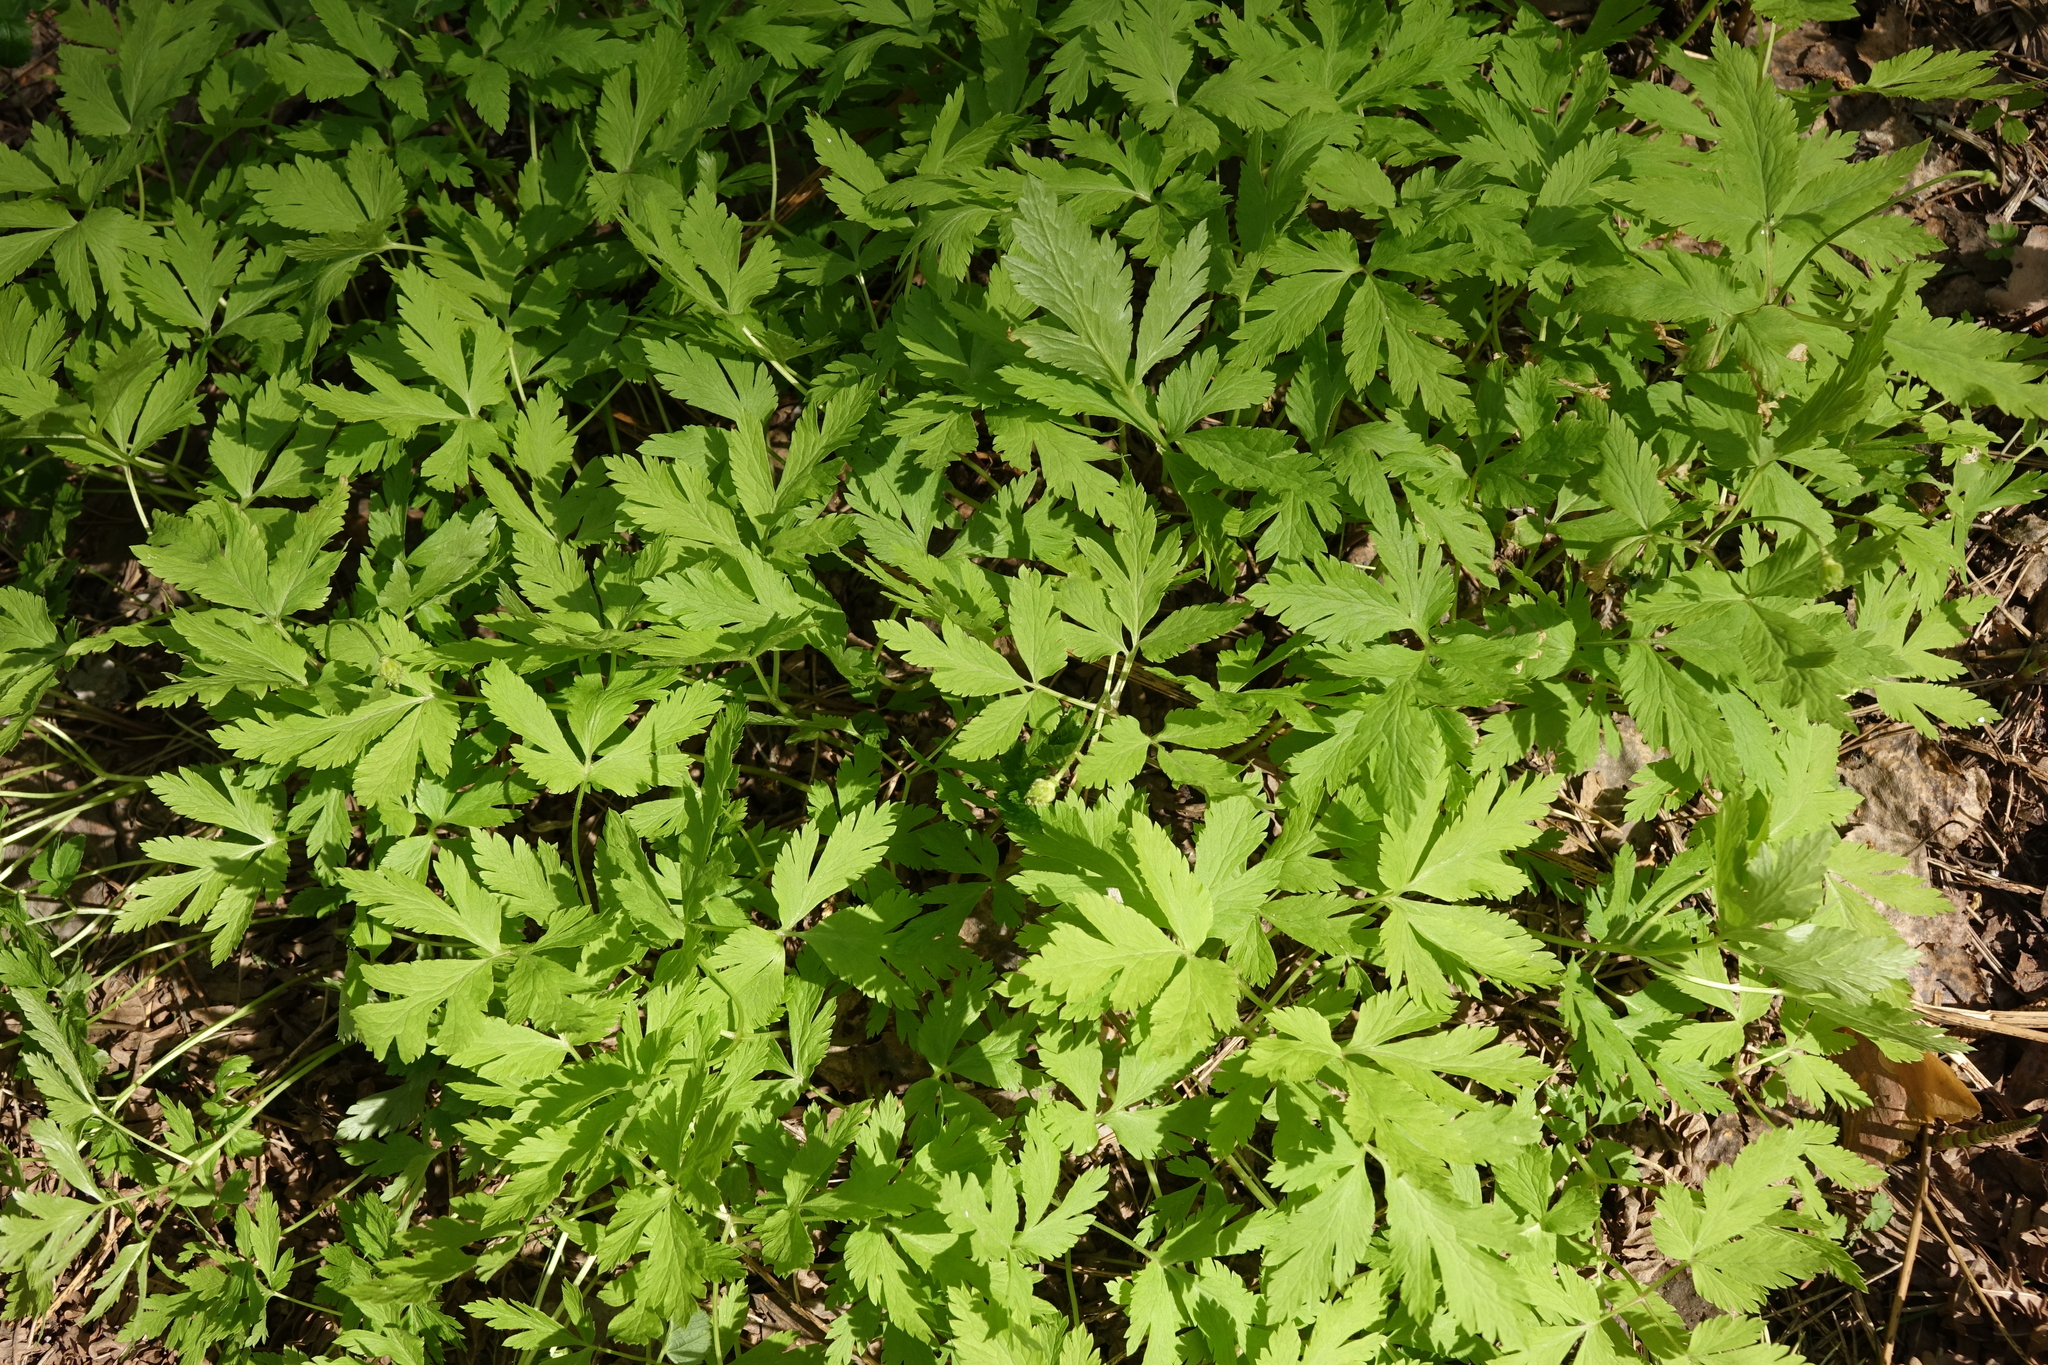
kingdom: Plantae
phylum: Tracheophyta
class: Magnoliopsida
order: Ranunculales
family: Ranunculaceae
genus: Anemone
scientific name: Anemone altaica
